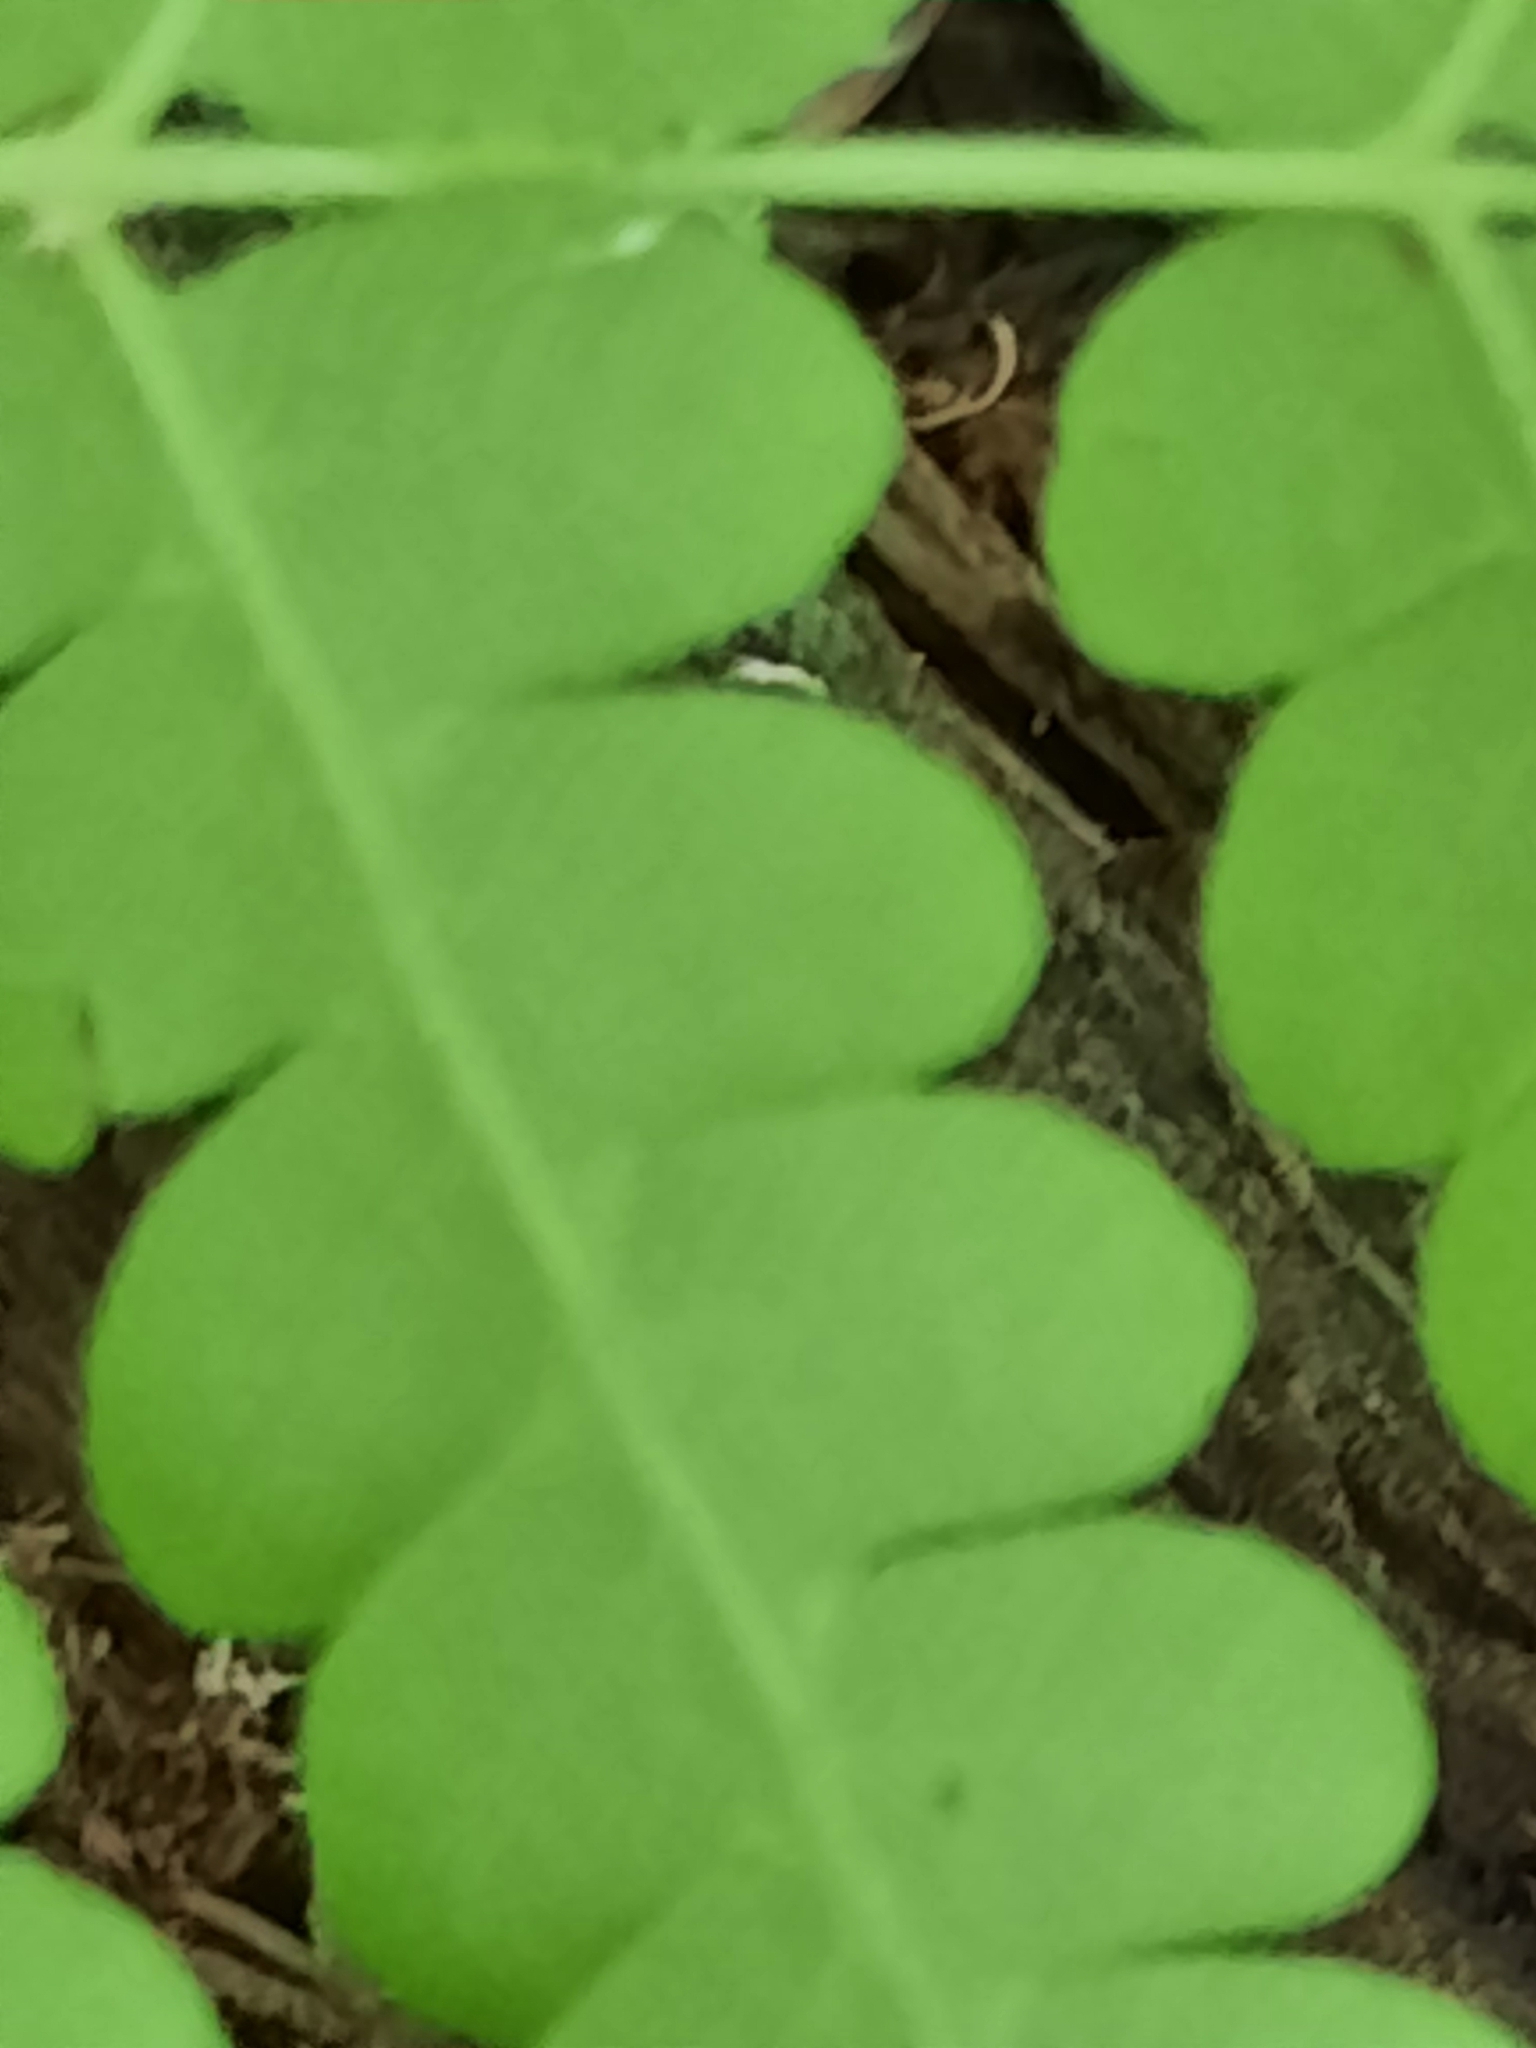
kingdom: Plantae
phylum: Tracheophyta
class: Polypodiopsida
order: Osmundales
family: Osmundaceae
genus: Claytosmunda
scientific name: Claytosmunda claytoniana
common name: Clayton's fern
